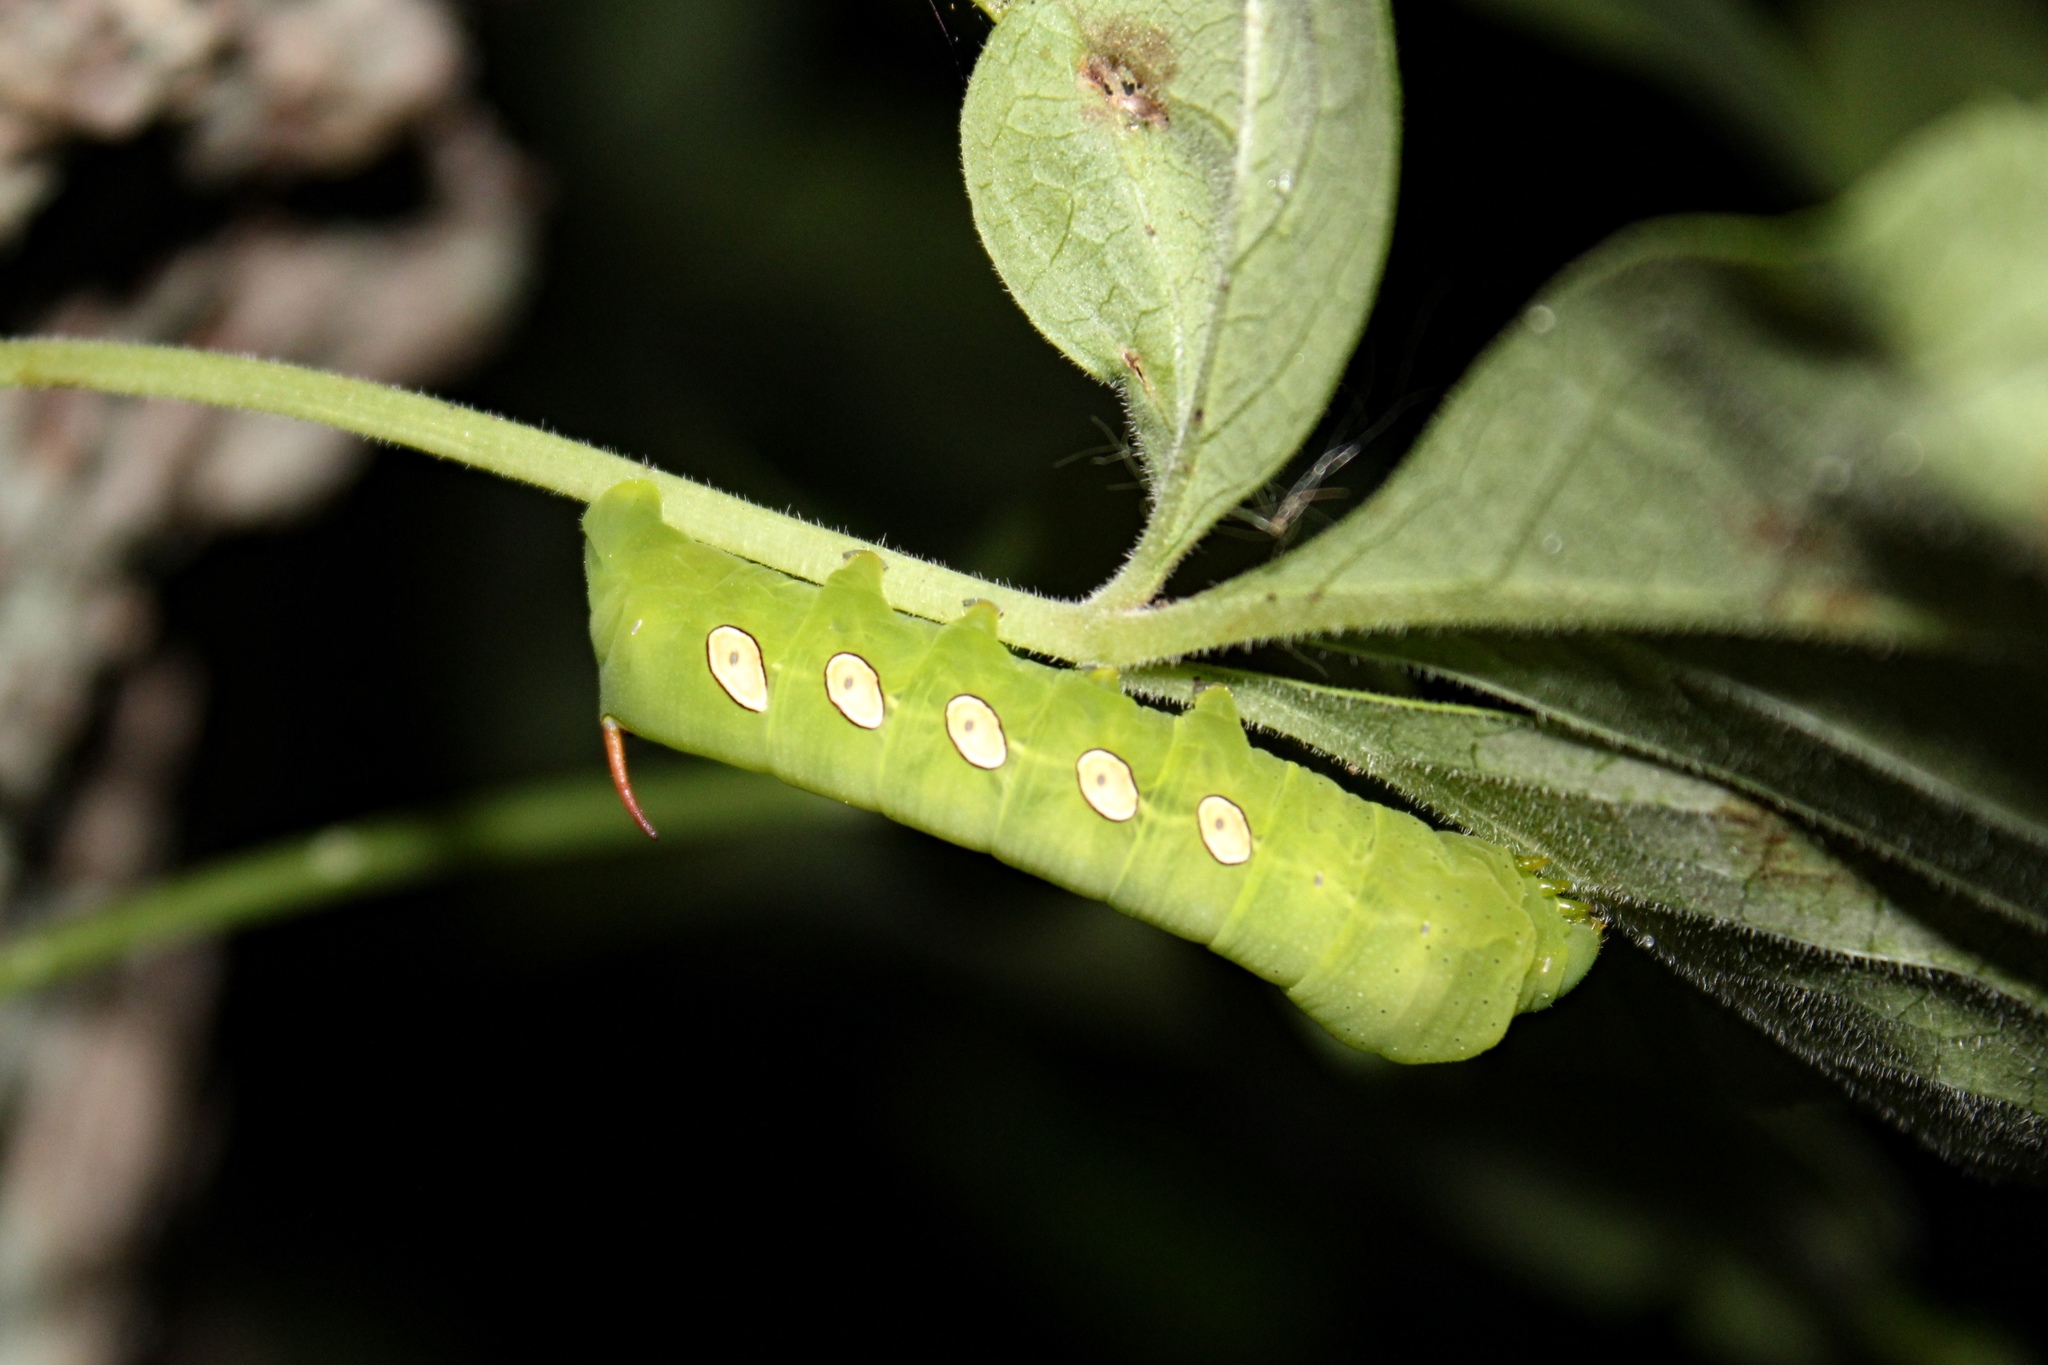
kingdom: Animalia
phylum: Arthropoda
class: Insecta
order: Lepidoptera
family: Sphingidae
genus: Eumorpha
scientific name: Eumorpha pandorus
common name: Pandora sphinx
